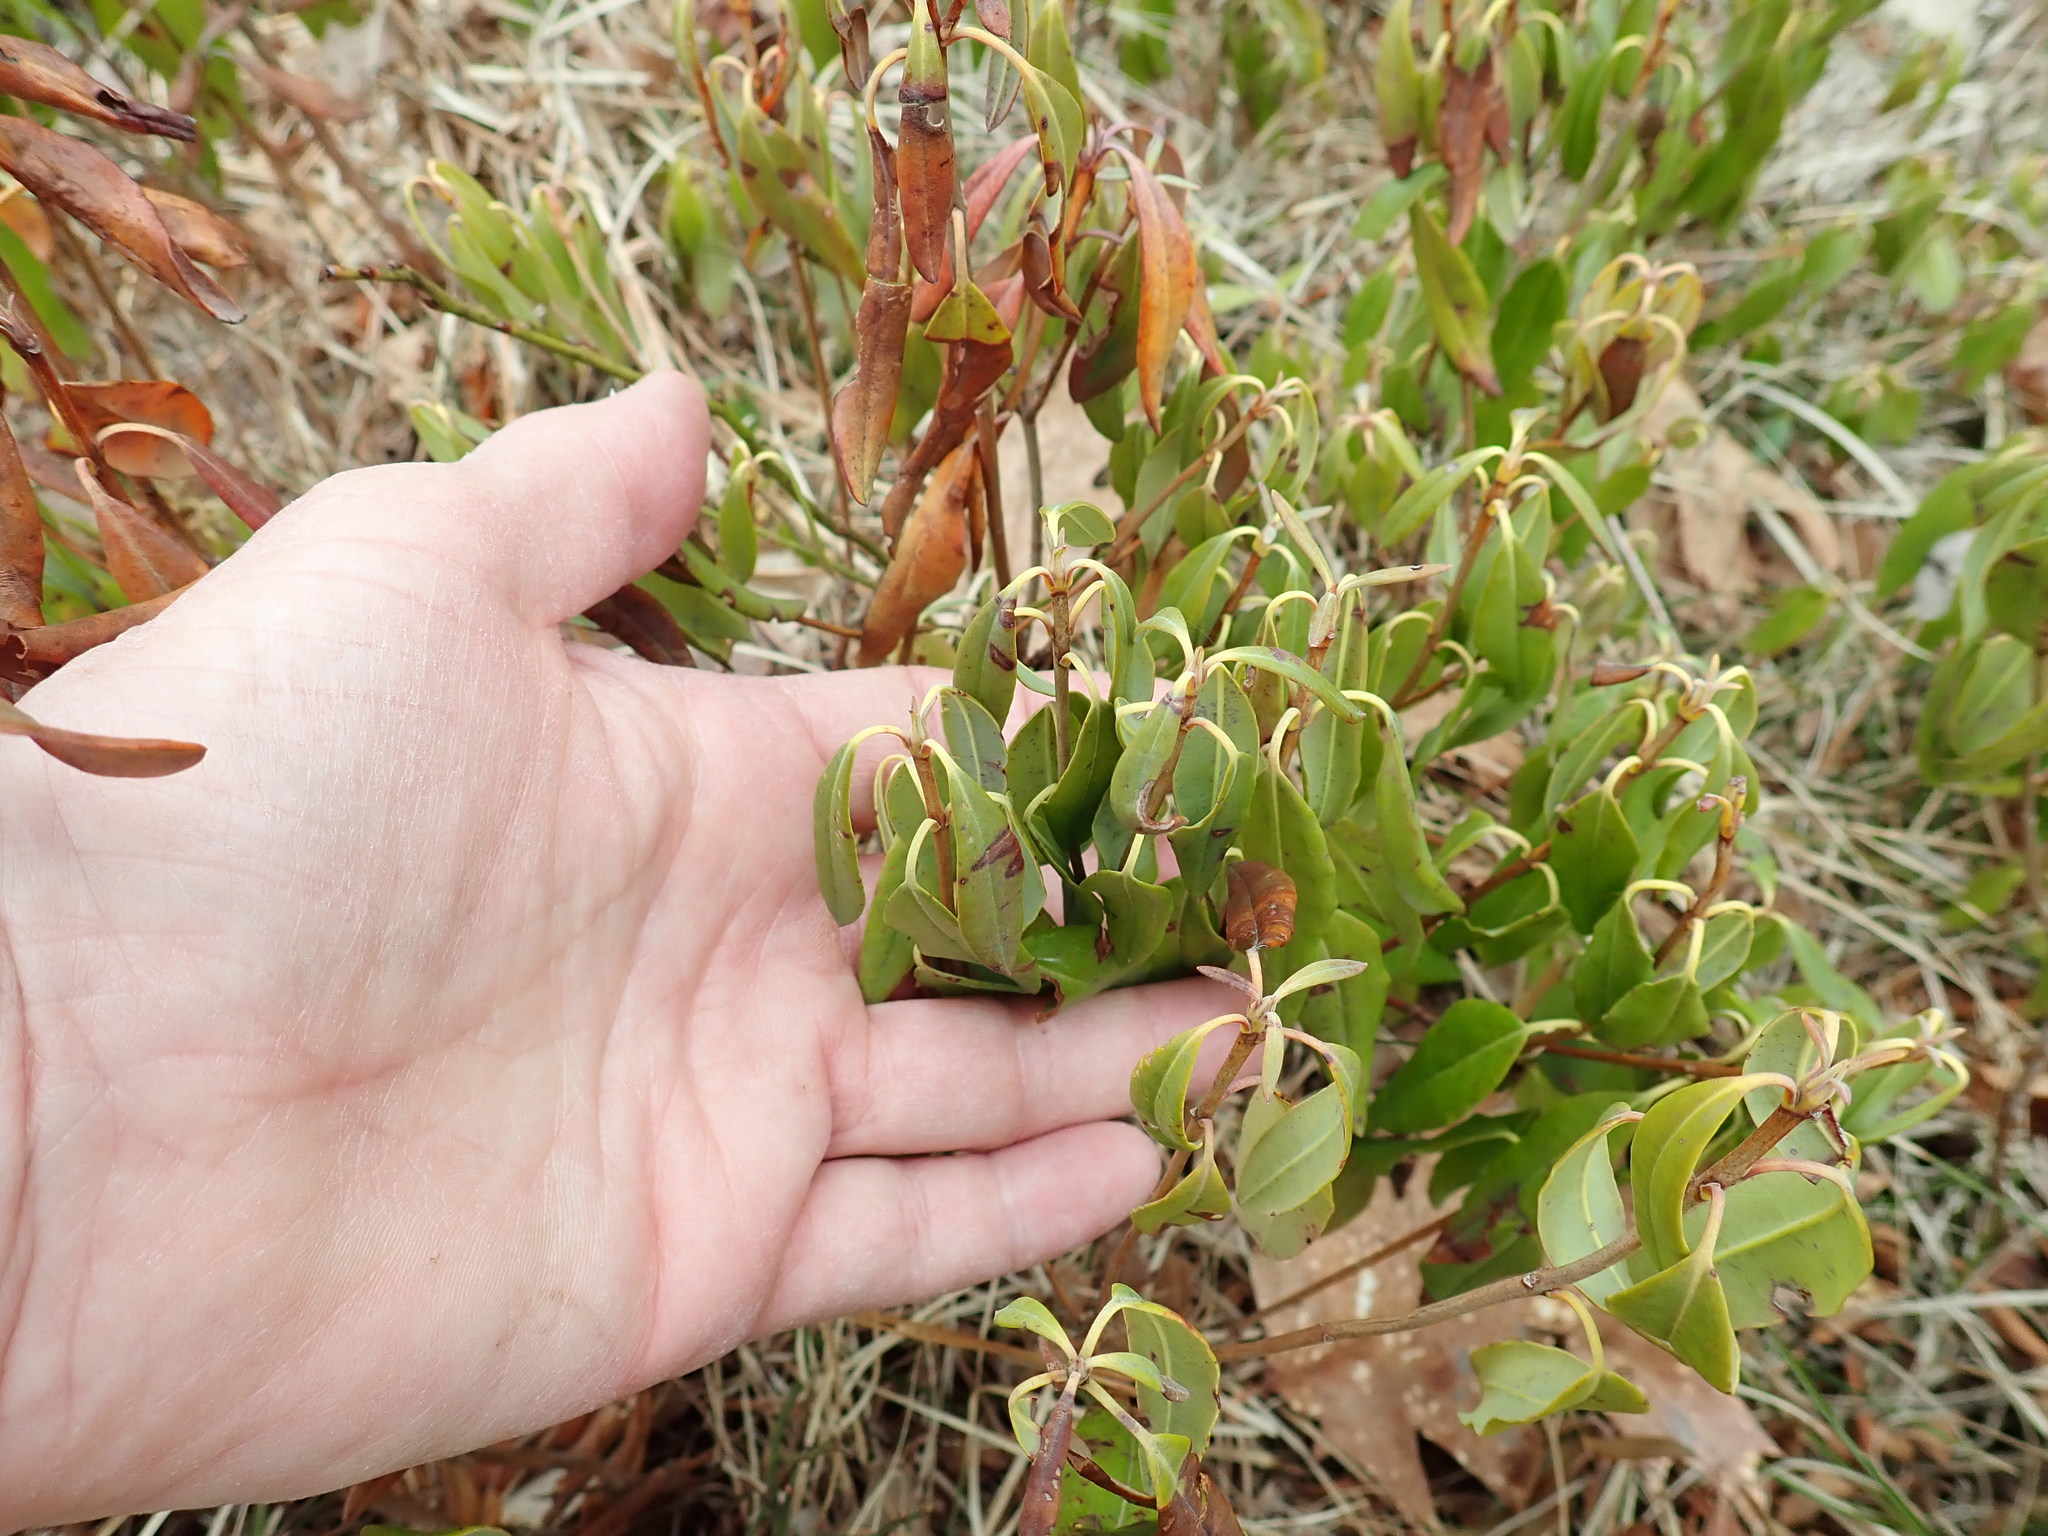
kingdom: Plantae
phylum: Tracheophyta
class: Magnoliopsida
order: Ericales
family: Ericaceae
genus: Kalmia
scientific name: Kalmia angustifolia
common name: Sheep-laurel
